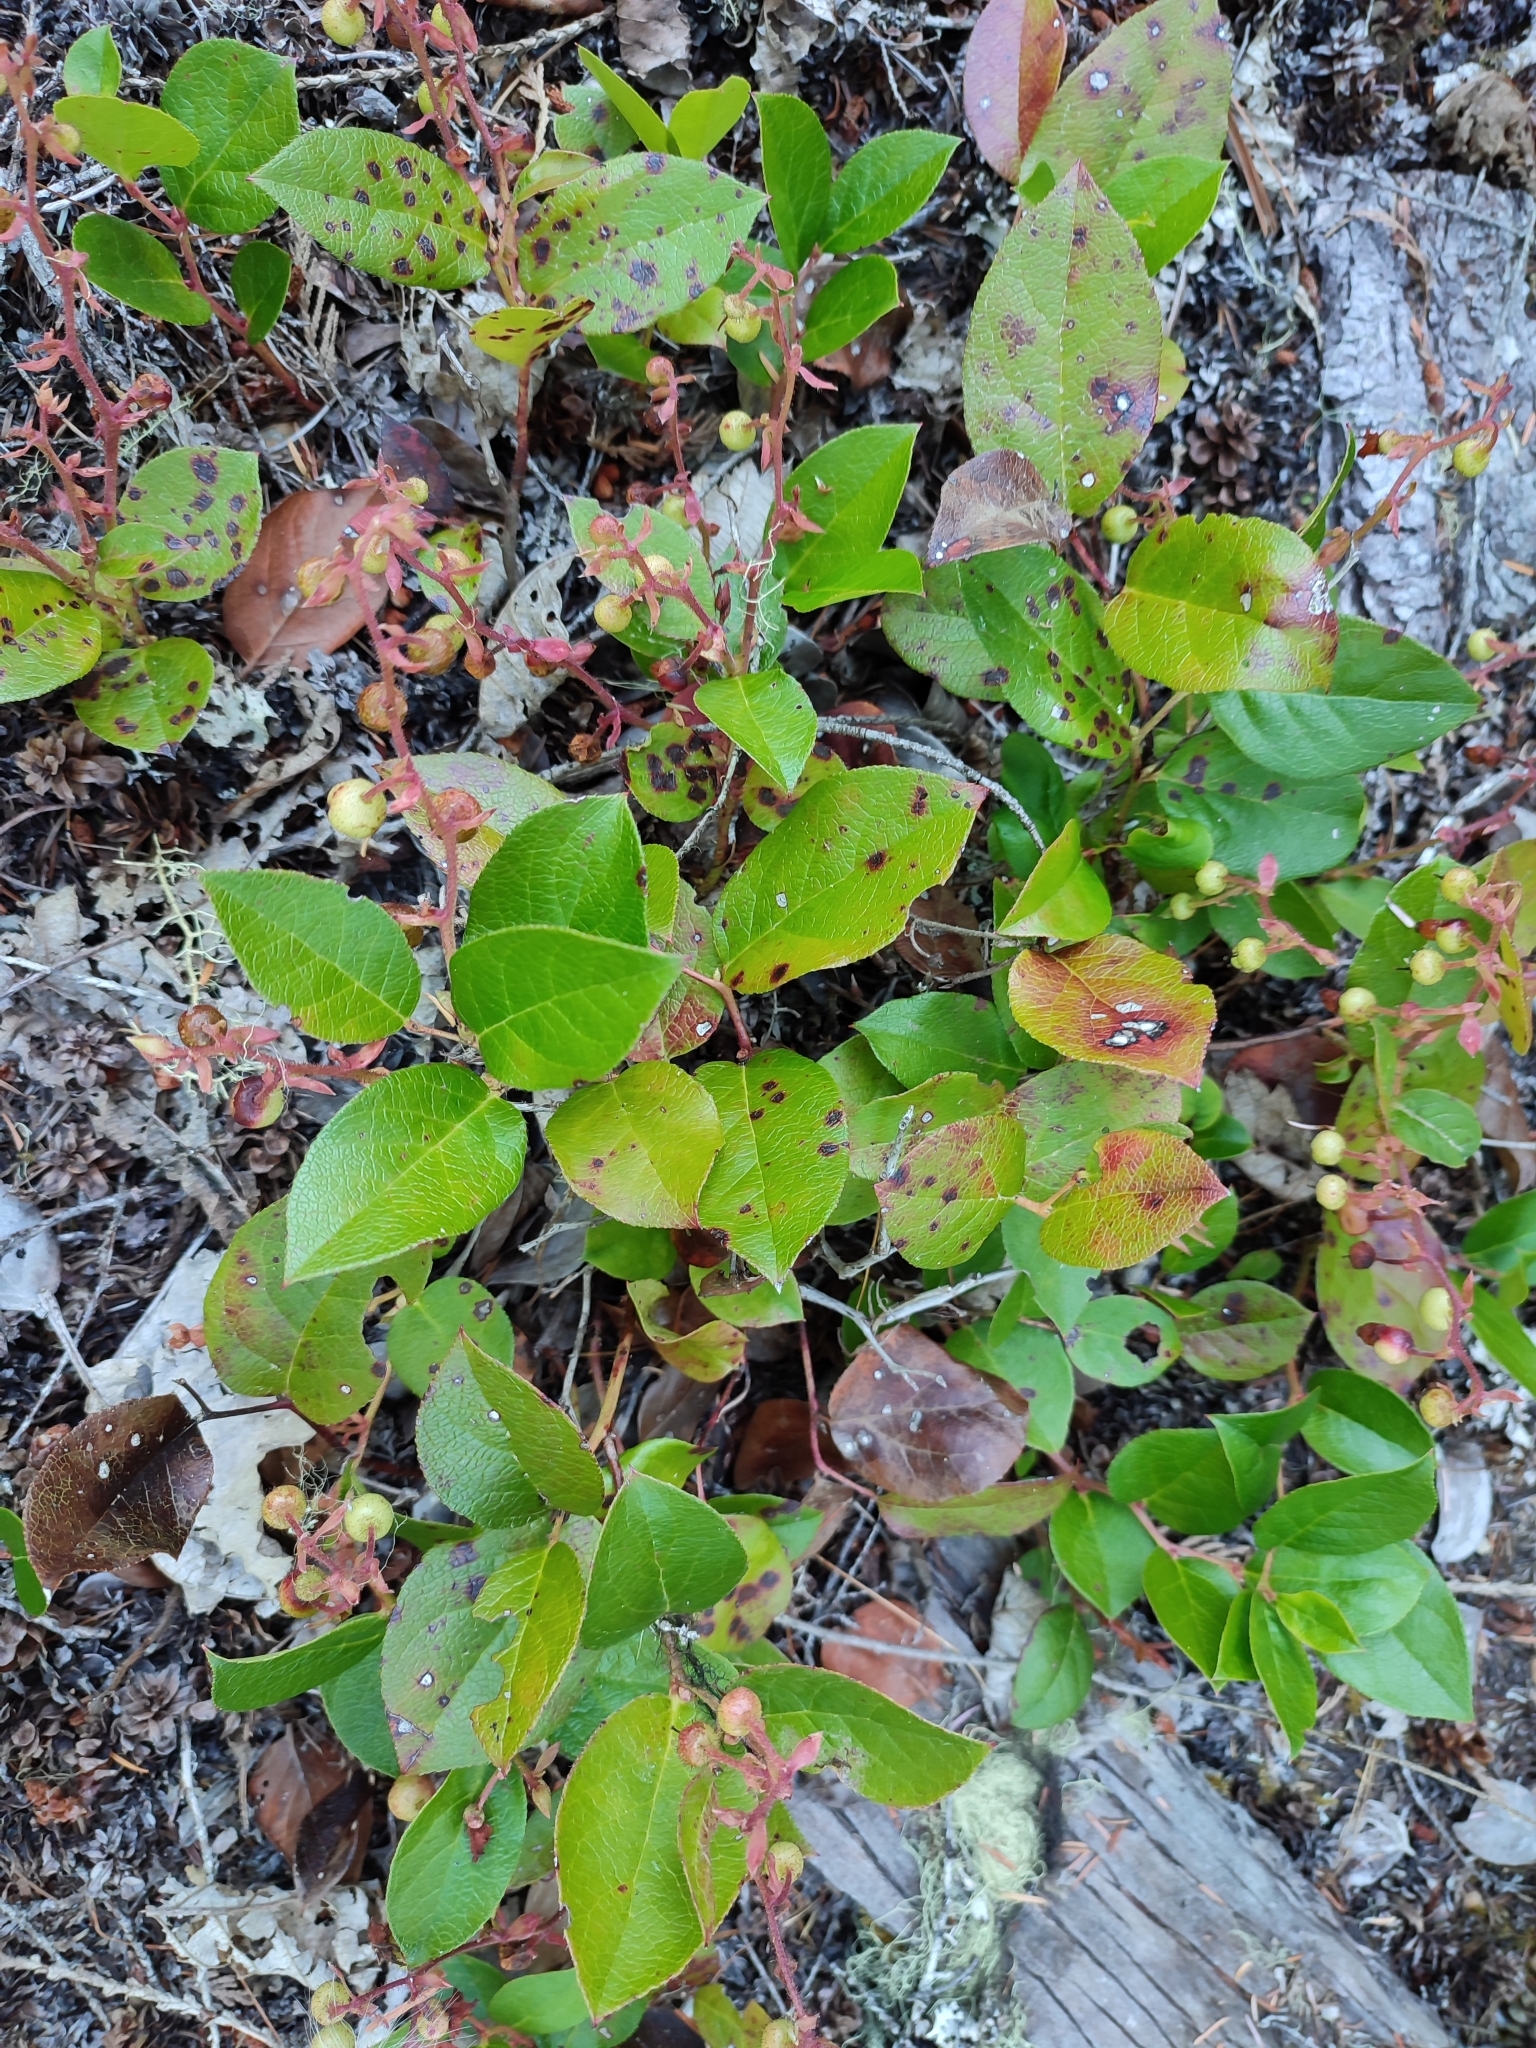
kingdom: Plantae
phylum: Tracheophyta
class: Magnoliopsida
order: Ericales
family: Ericaceae
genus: Gaultheria
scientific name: Gaultheria shallon
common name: Shallon
